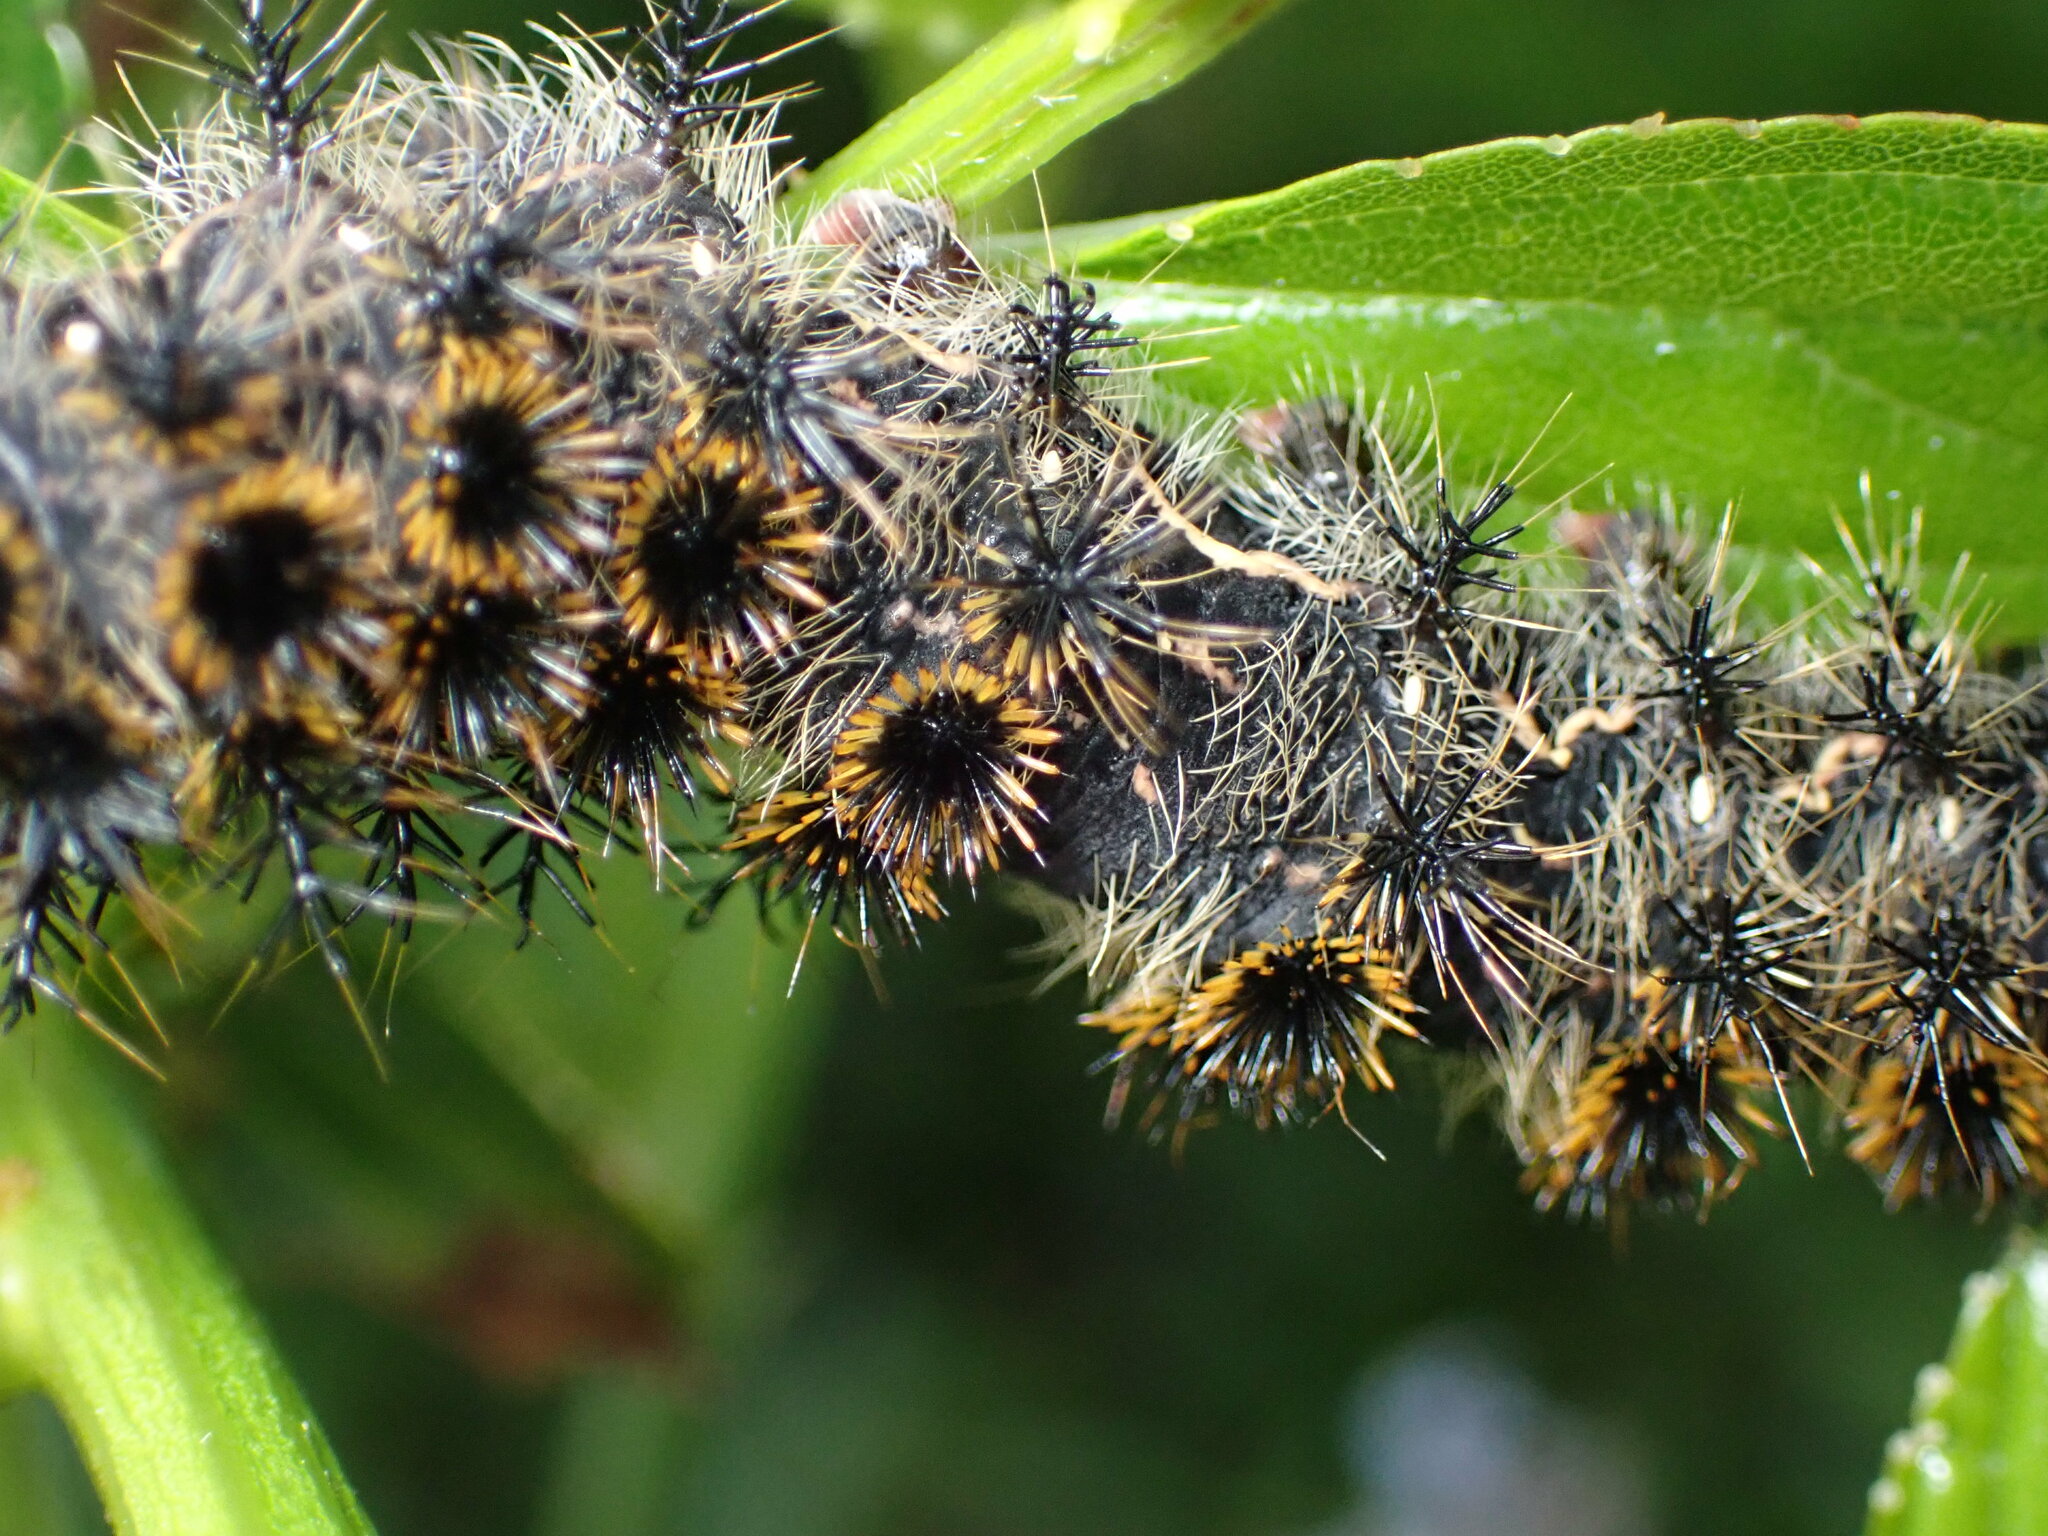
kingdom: Animalia
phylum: Arthropoda
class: Insecta
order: Lepidoptera
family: Saturniidae
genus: Hemileuca
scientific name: Hemileuca eglanterina
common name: Western sheepmoth
